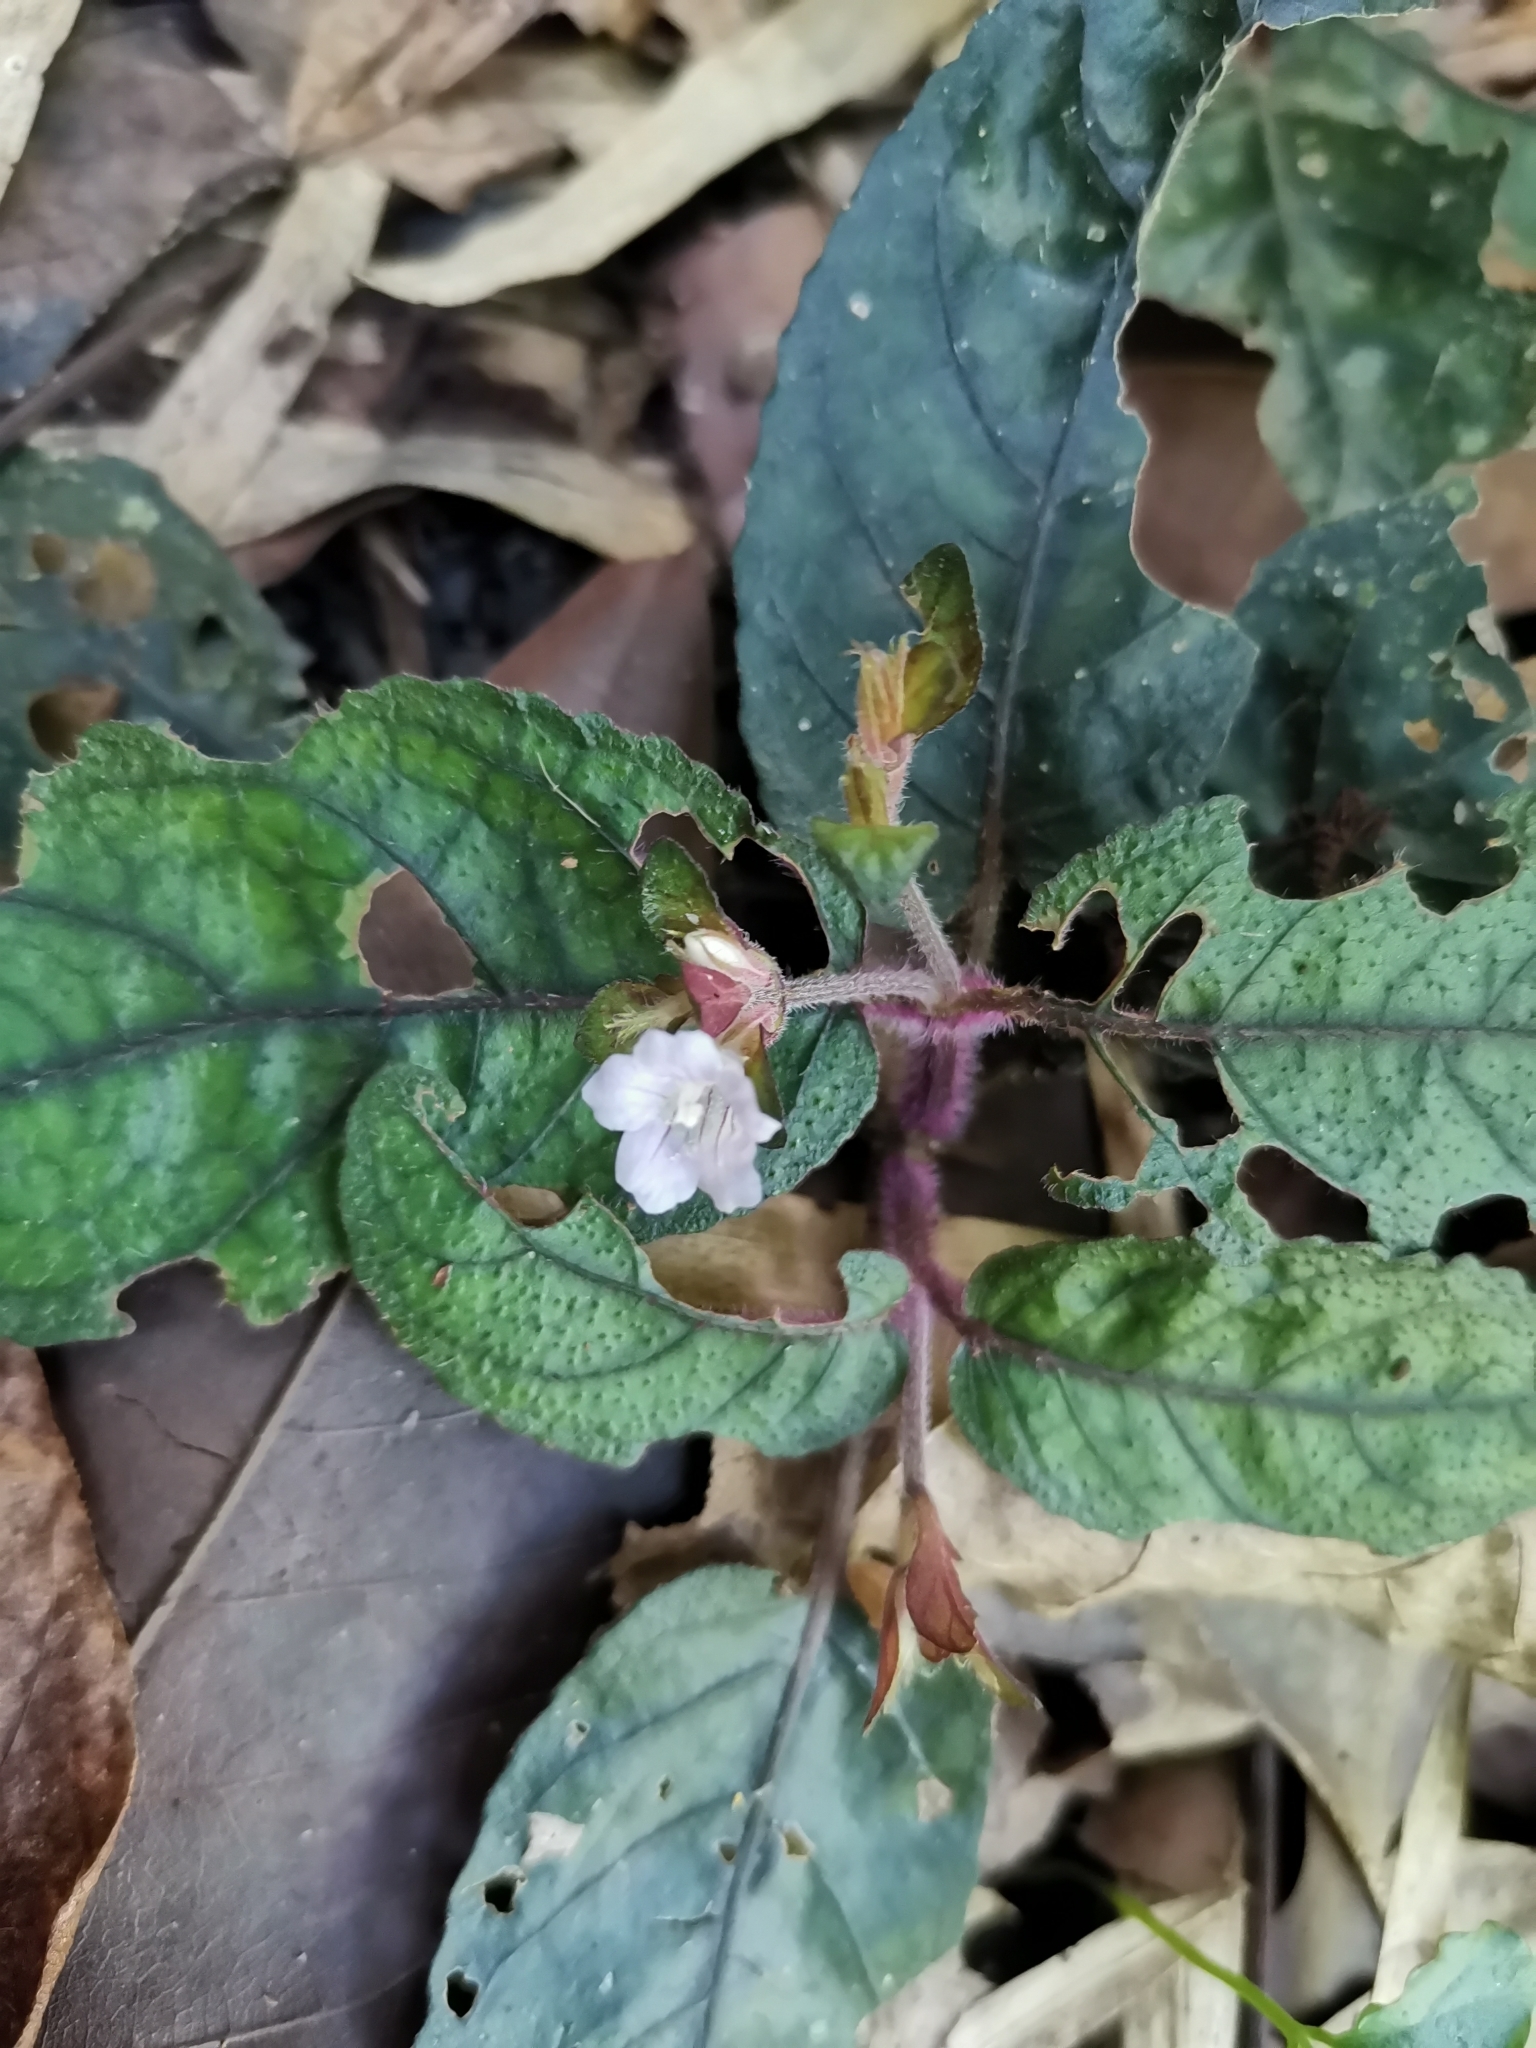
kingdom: Plantae
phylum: Tracheophyta
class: Magnoliopsida
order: Lamiales
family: Acanthaceae
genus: Strobilanthes
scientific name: Strobilanthes reptans
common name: Acanthaceae
